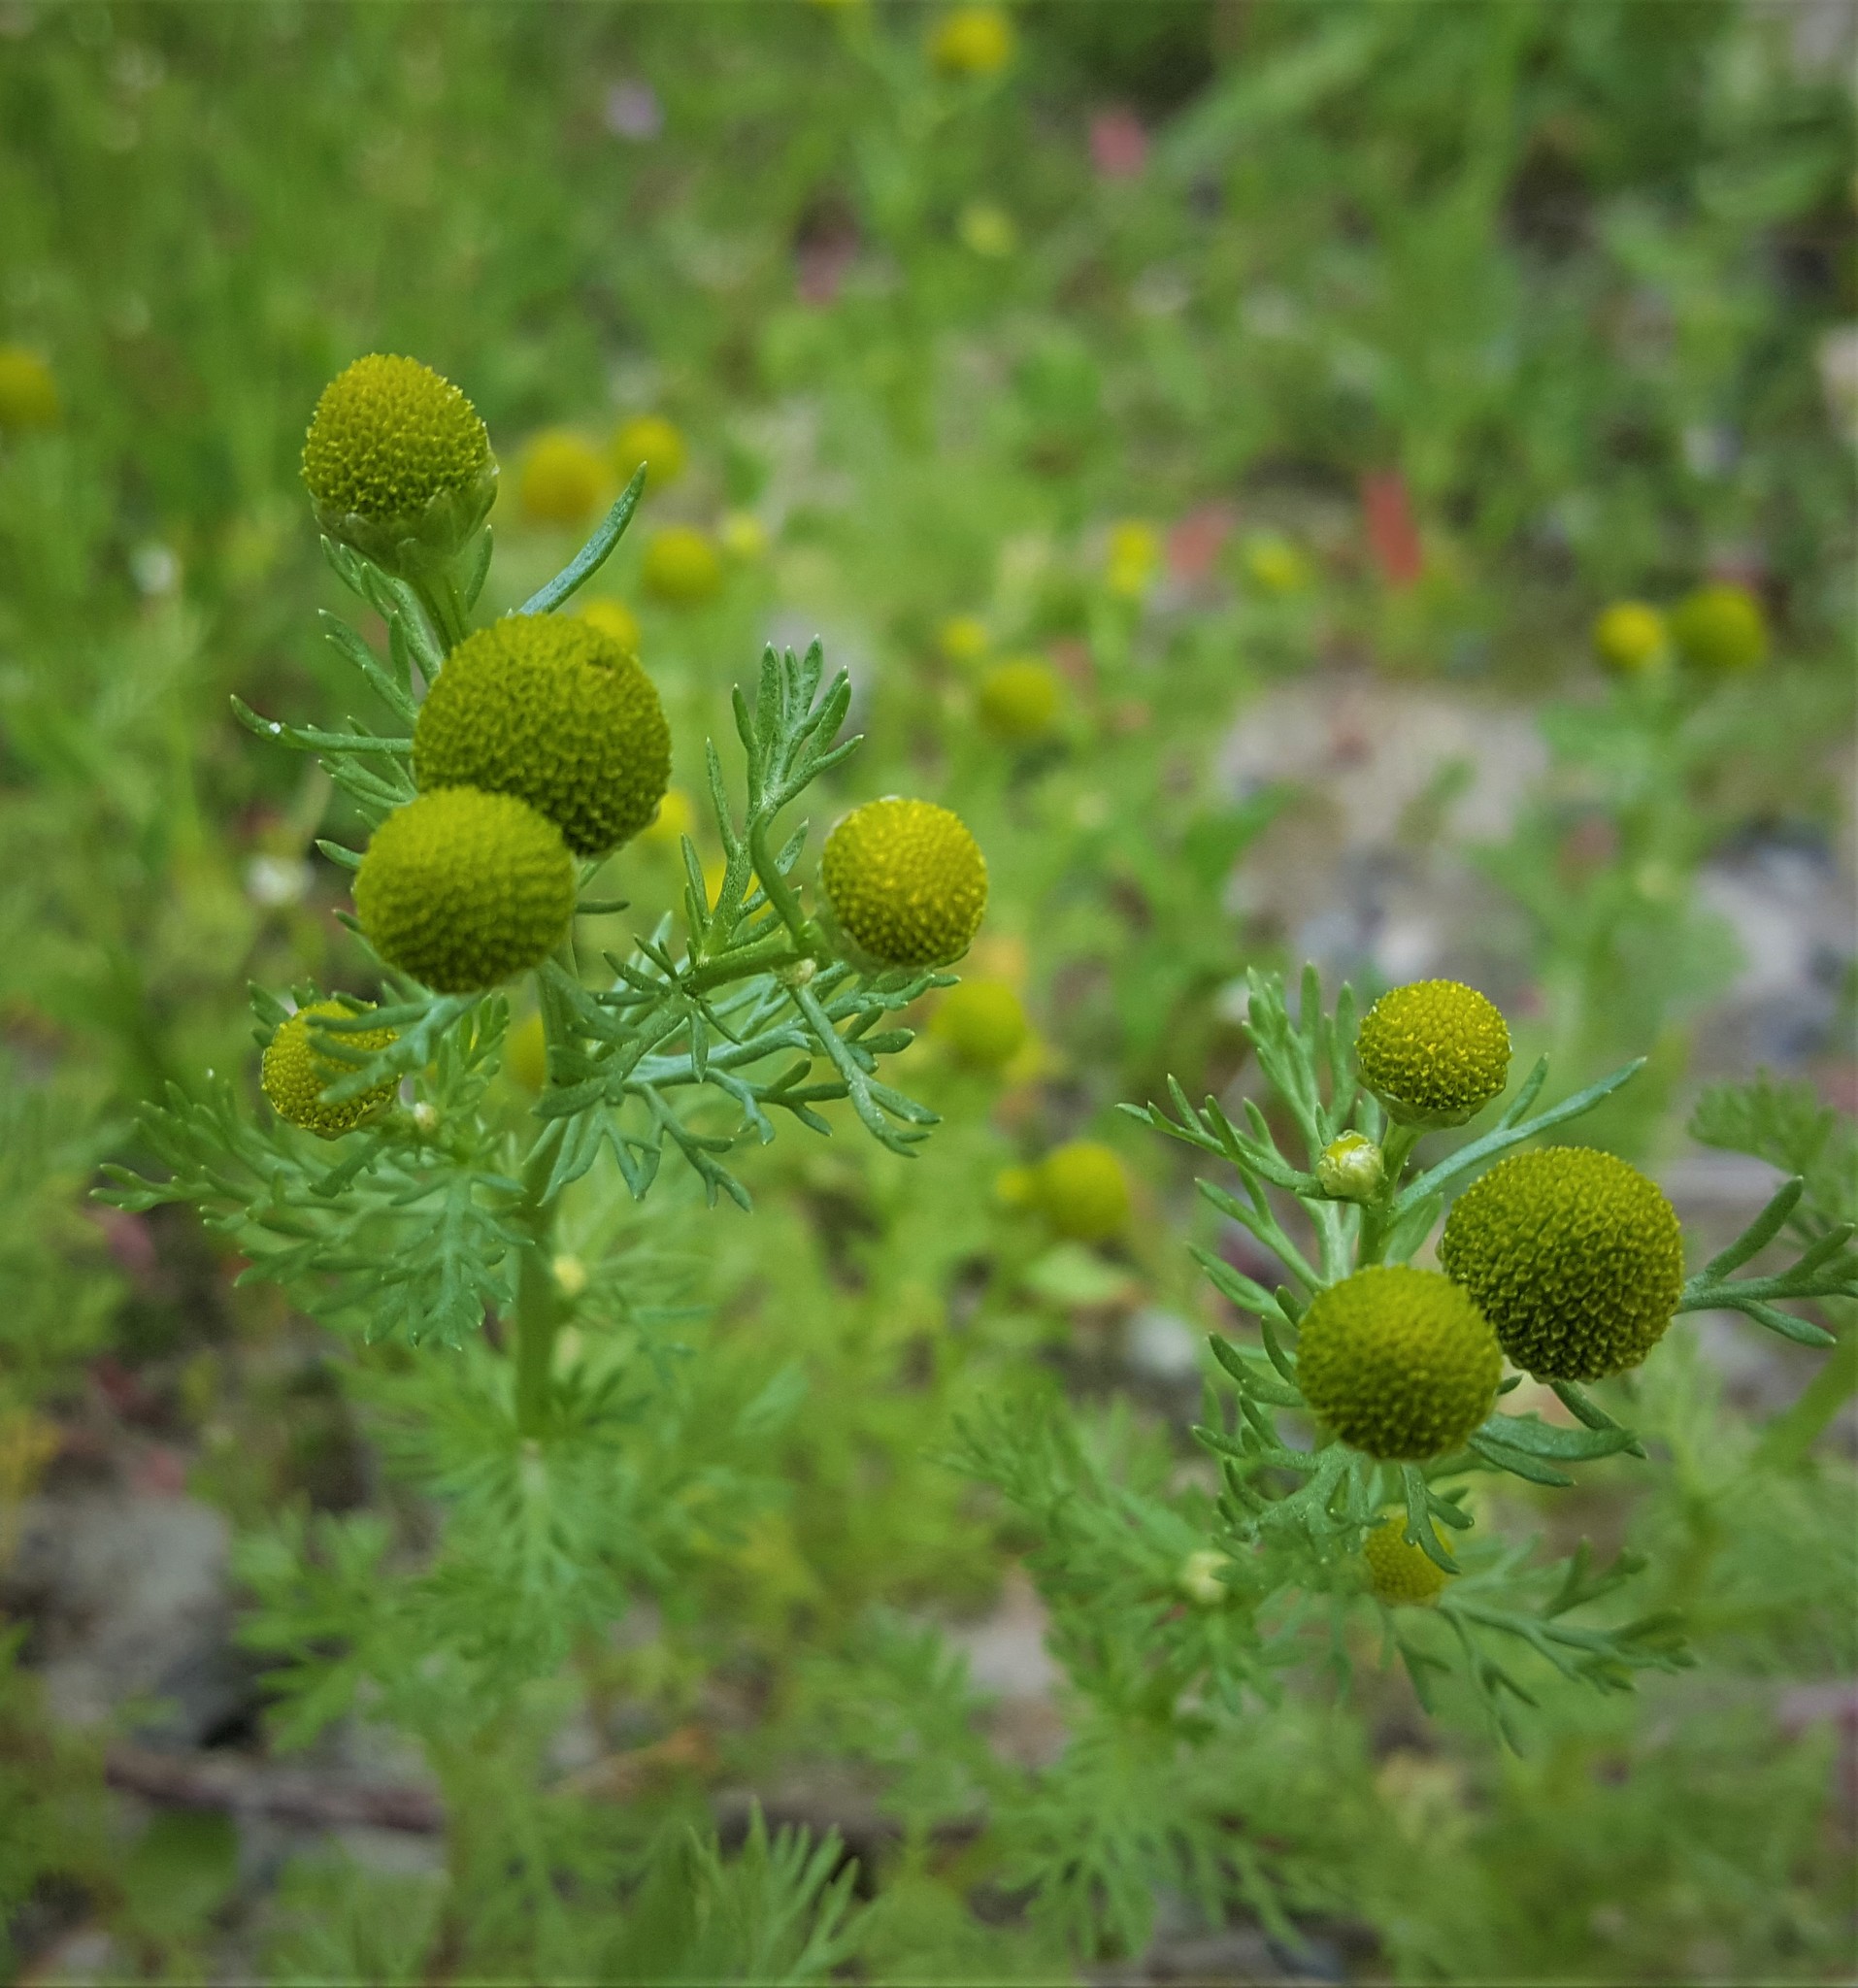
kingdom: Plantae
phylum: Tracheophyta
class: Magnoliopsida
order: Asterales
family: Asteraceae
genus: Matricaria
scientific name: Matricaria discoidea
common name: Disc mayweed
